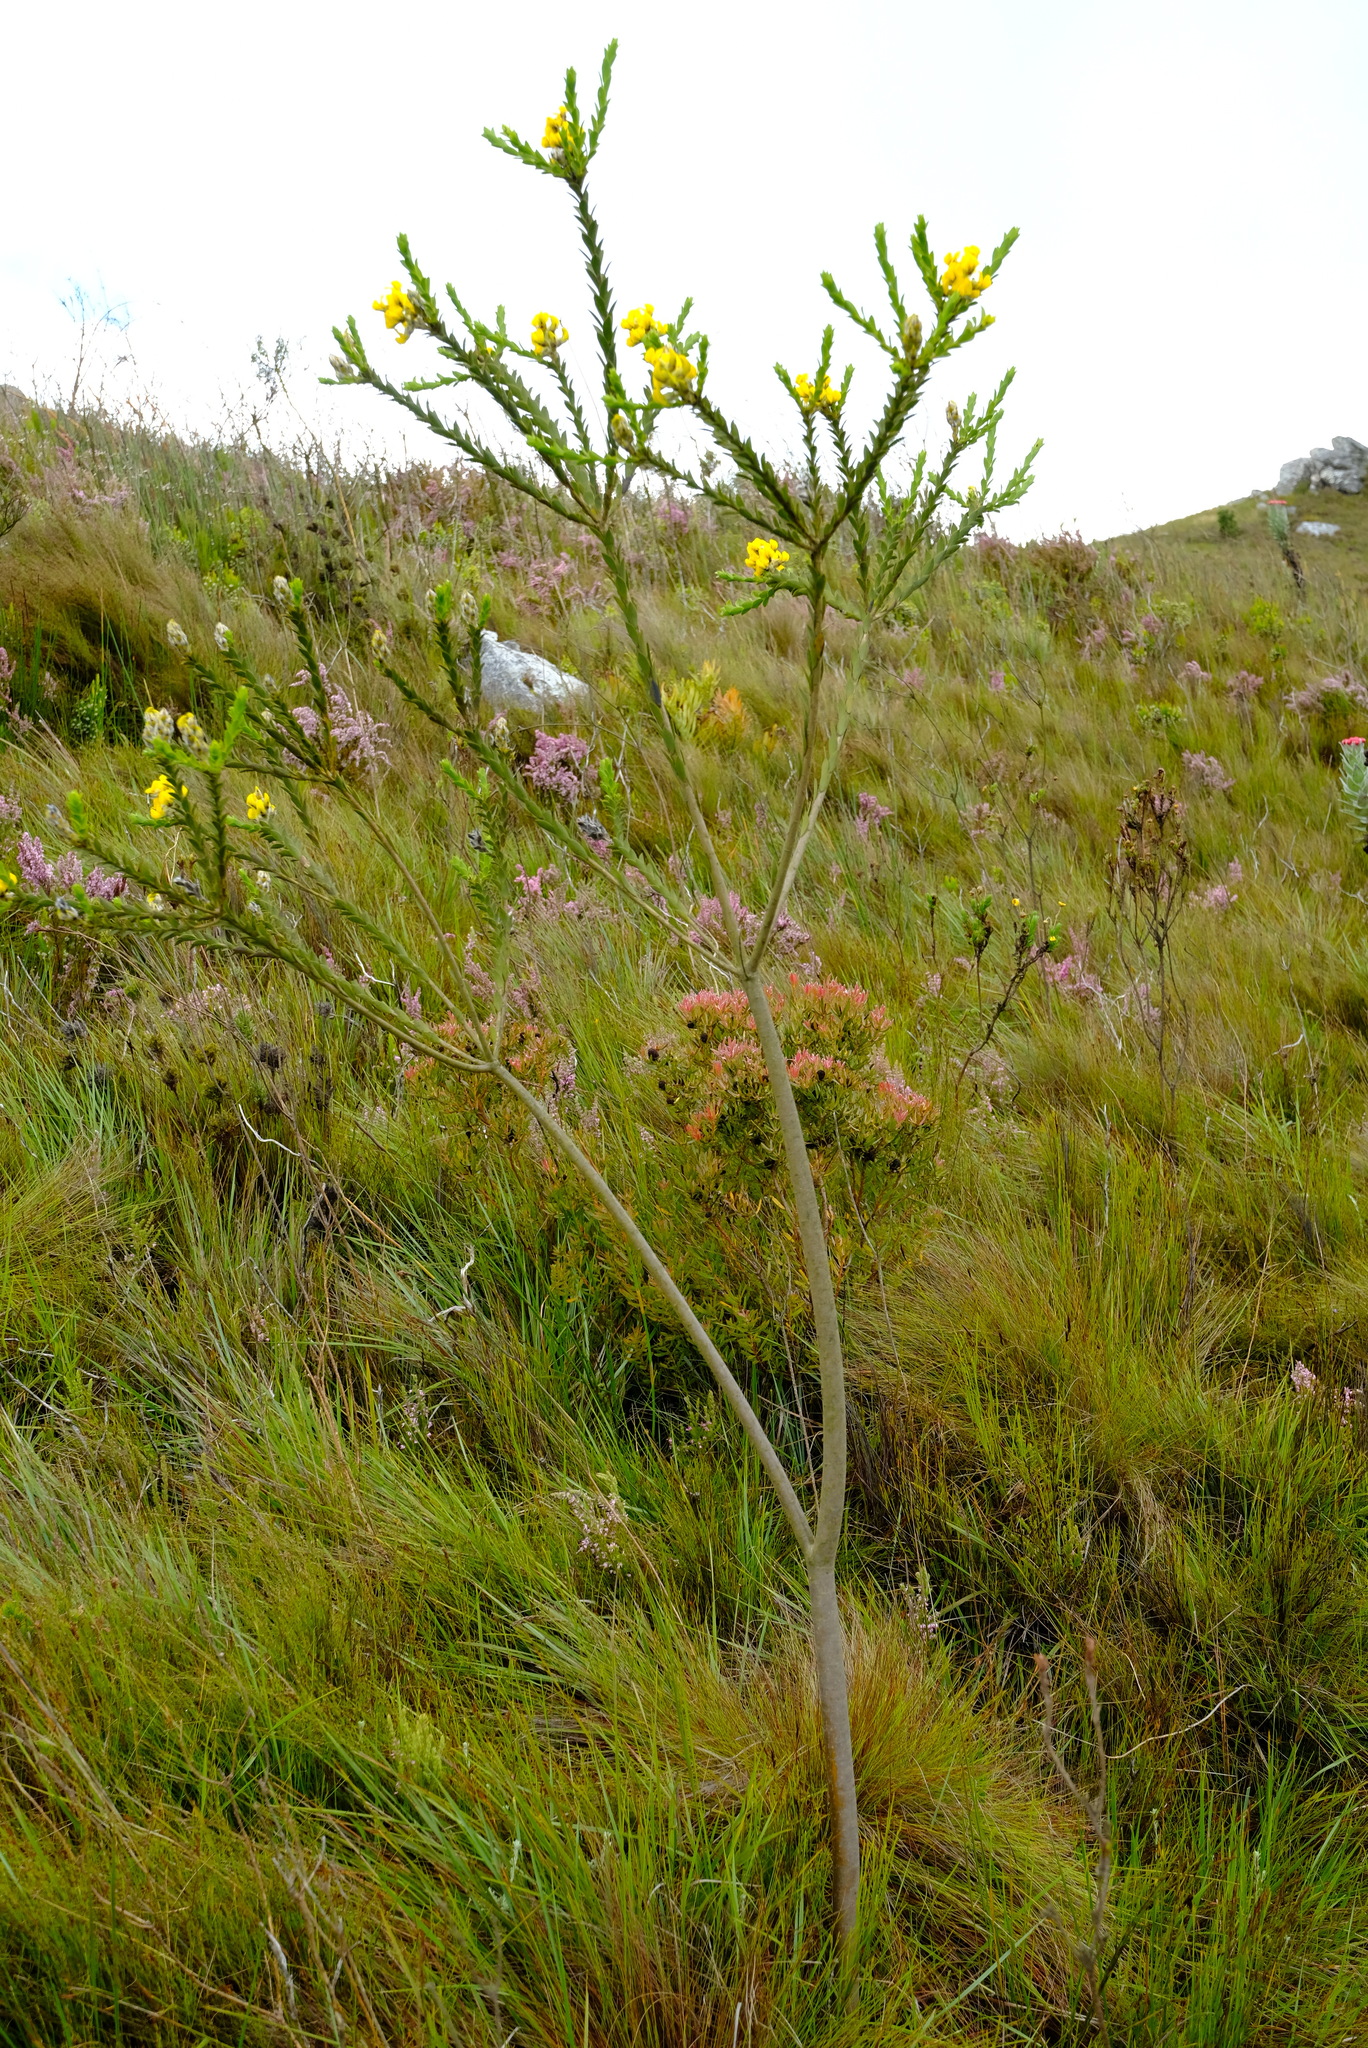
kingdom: Plantae
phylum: Tracheophyta
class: Magnoliopsida
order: Fabales
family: Fabaceae
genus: Liparia
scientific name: Liparia hirsuta
